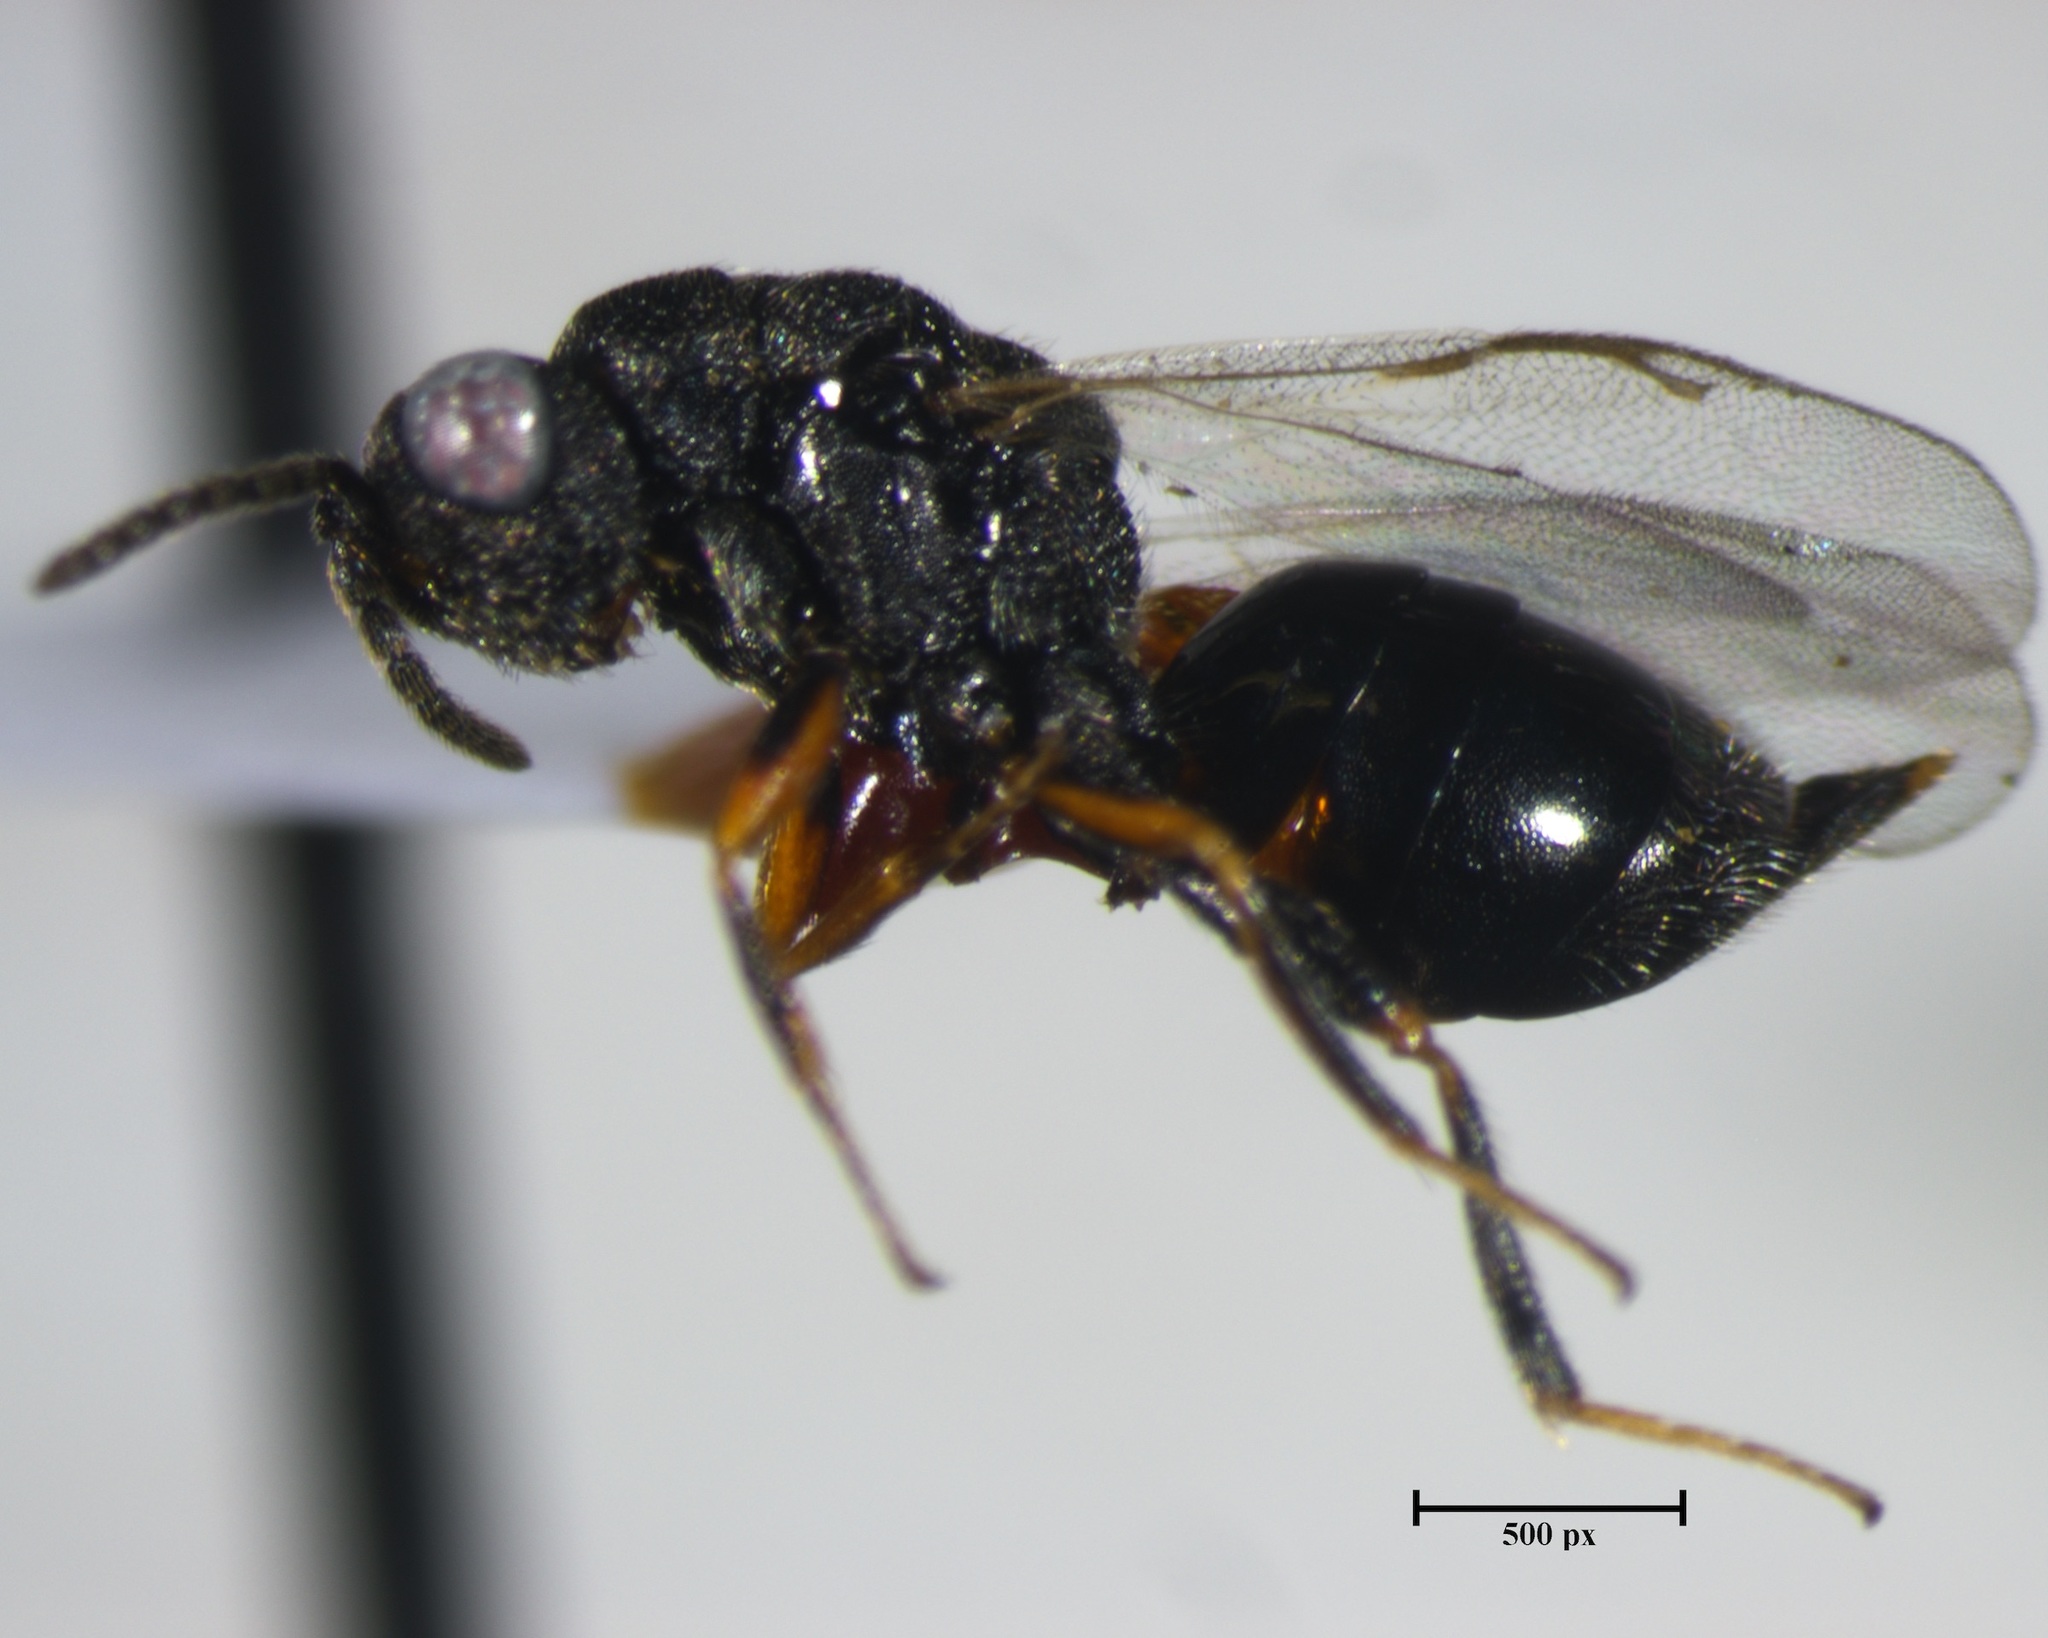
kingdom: Animalia
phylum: Arthropoda
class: Insecta
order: Hymenoptera
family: Eurytomidae
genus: Eurytoma
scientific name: Eurytoma discordans
